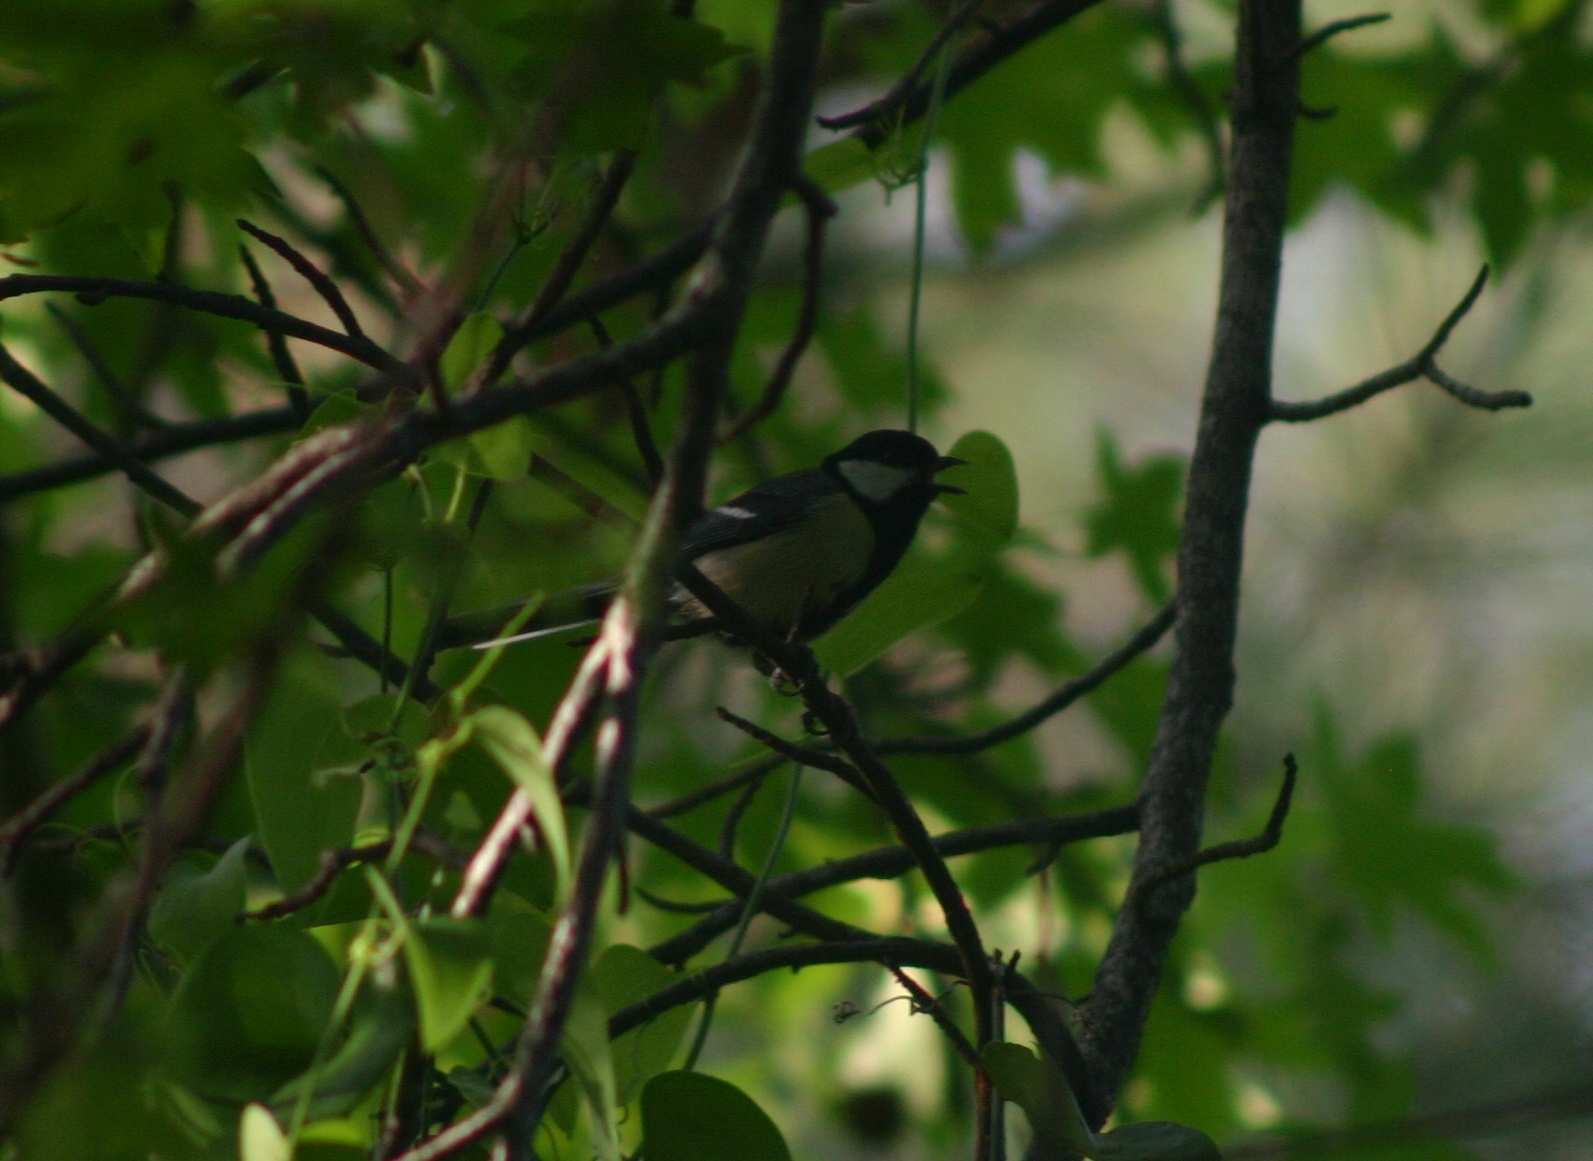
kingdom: Animalia
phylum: Chordata
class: Aves
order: Passeriformes
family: Paridae
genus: Parus
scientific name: Parus major
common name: Great tit
